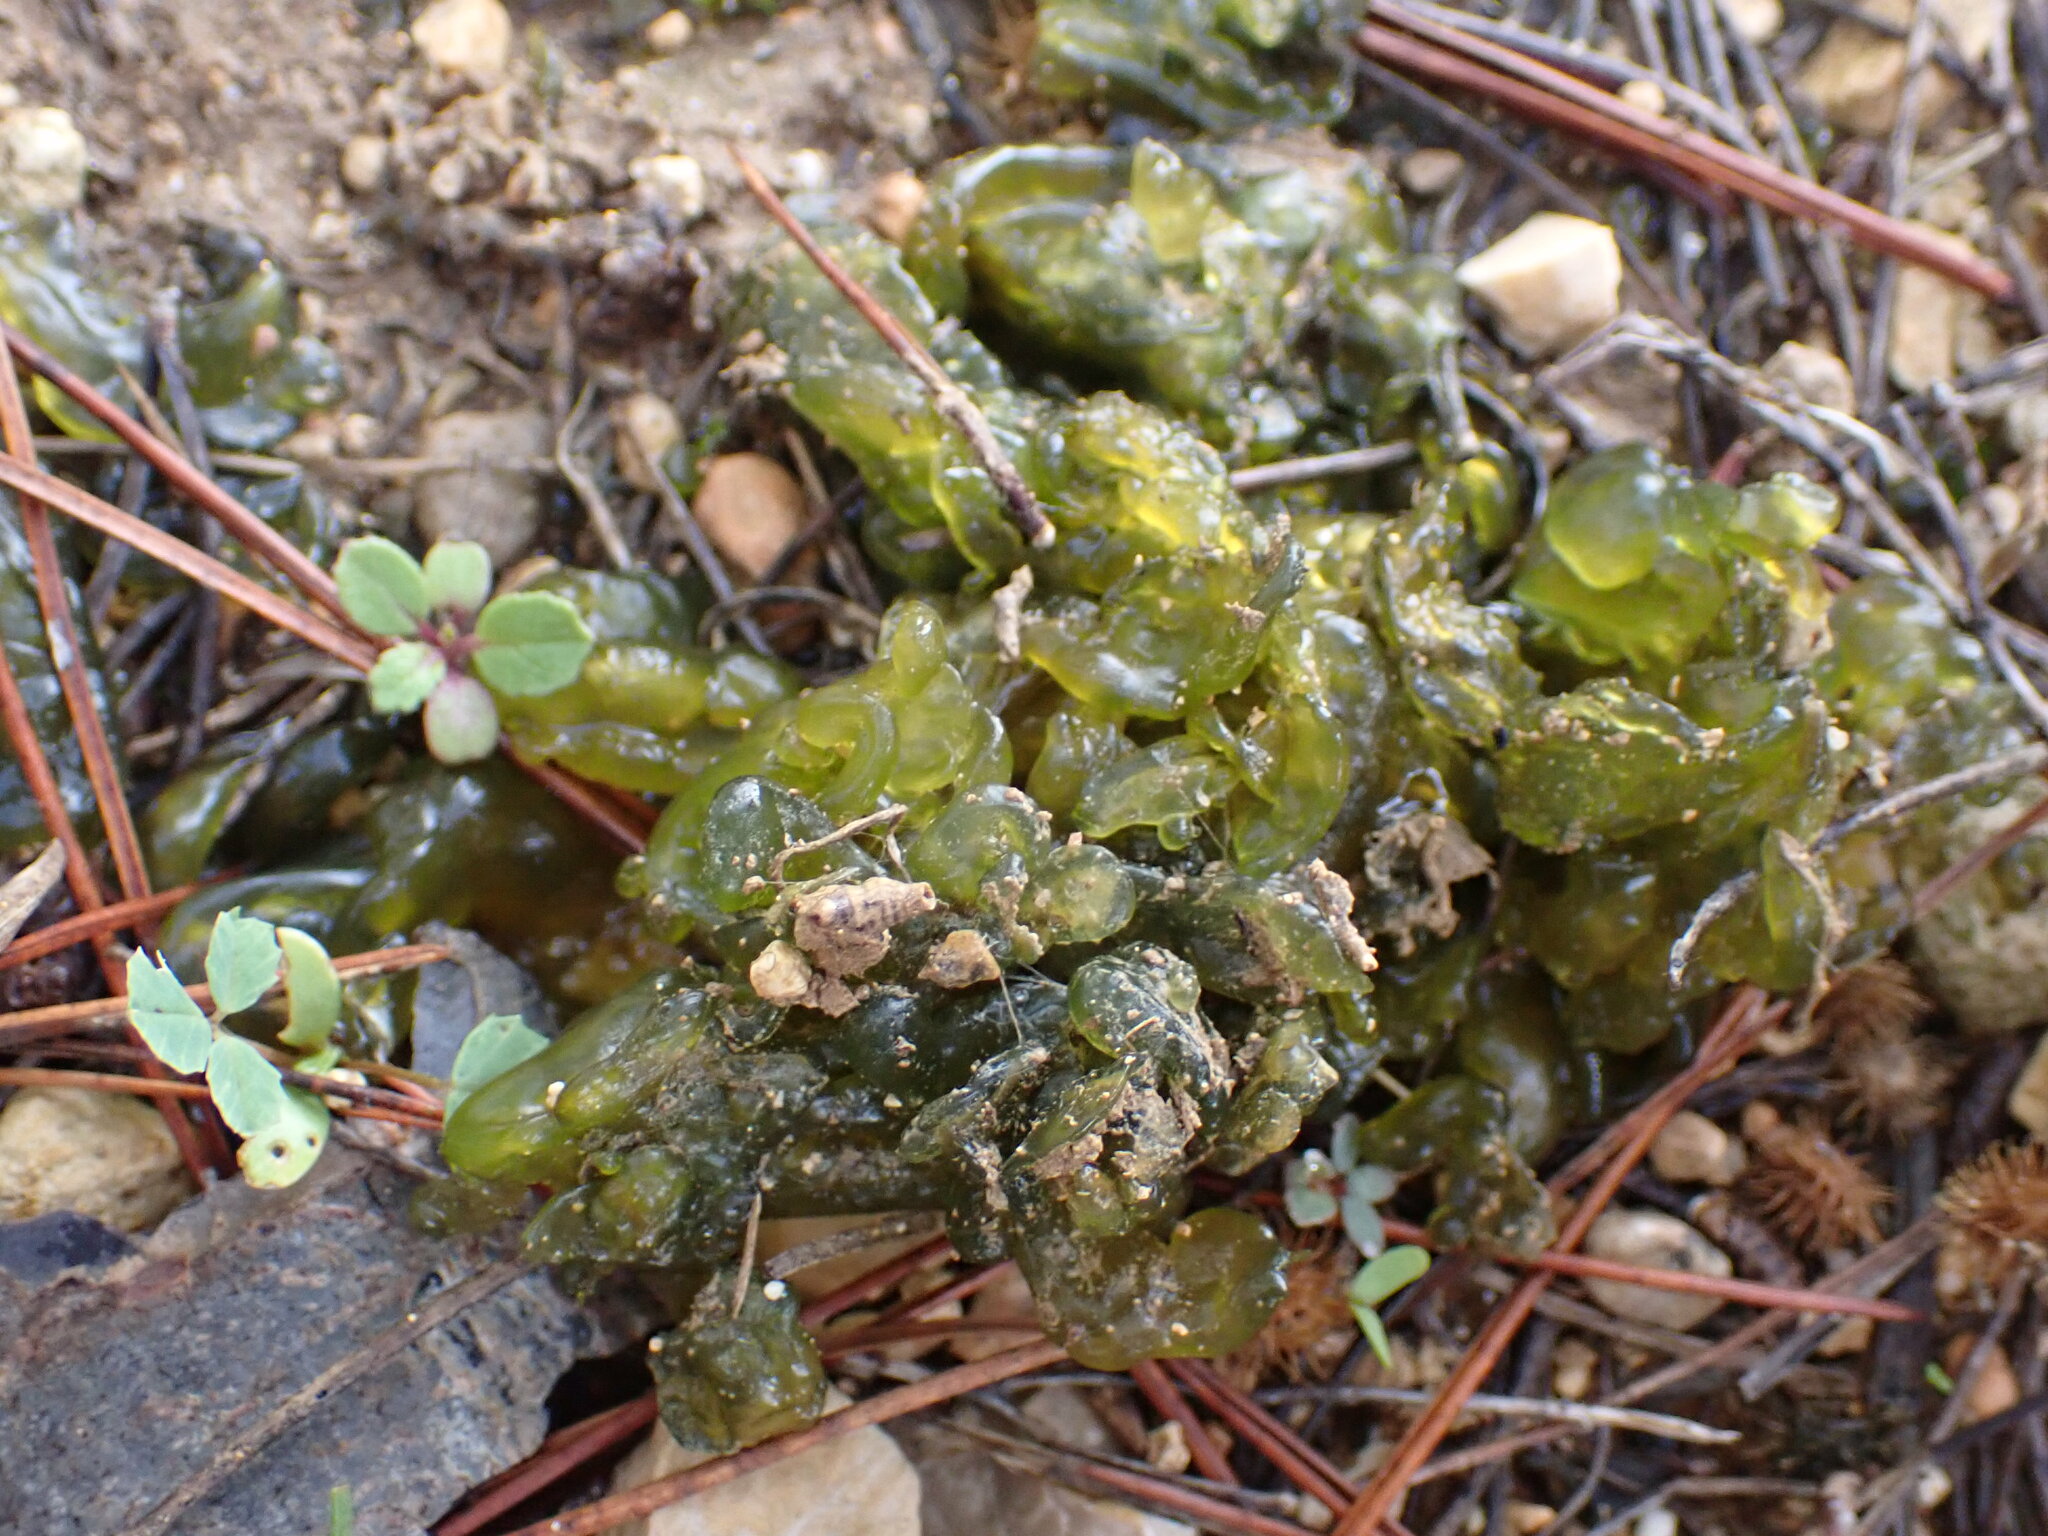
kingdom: Bacteria
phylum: Cyanobacteria
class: Cyanobacteriia
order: Cyanobacteriales
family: Nostocaceae
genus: Nostoc
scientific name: Nostoc commune
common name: Star jelly
